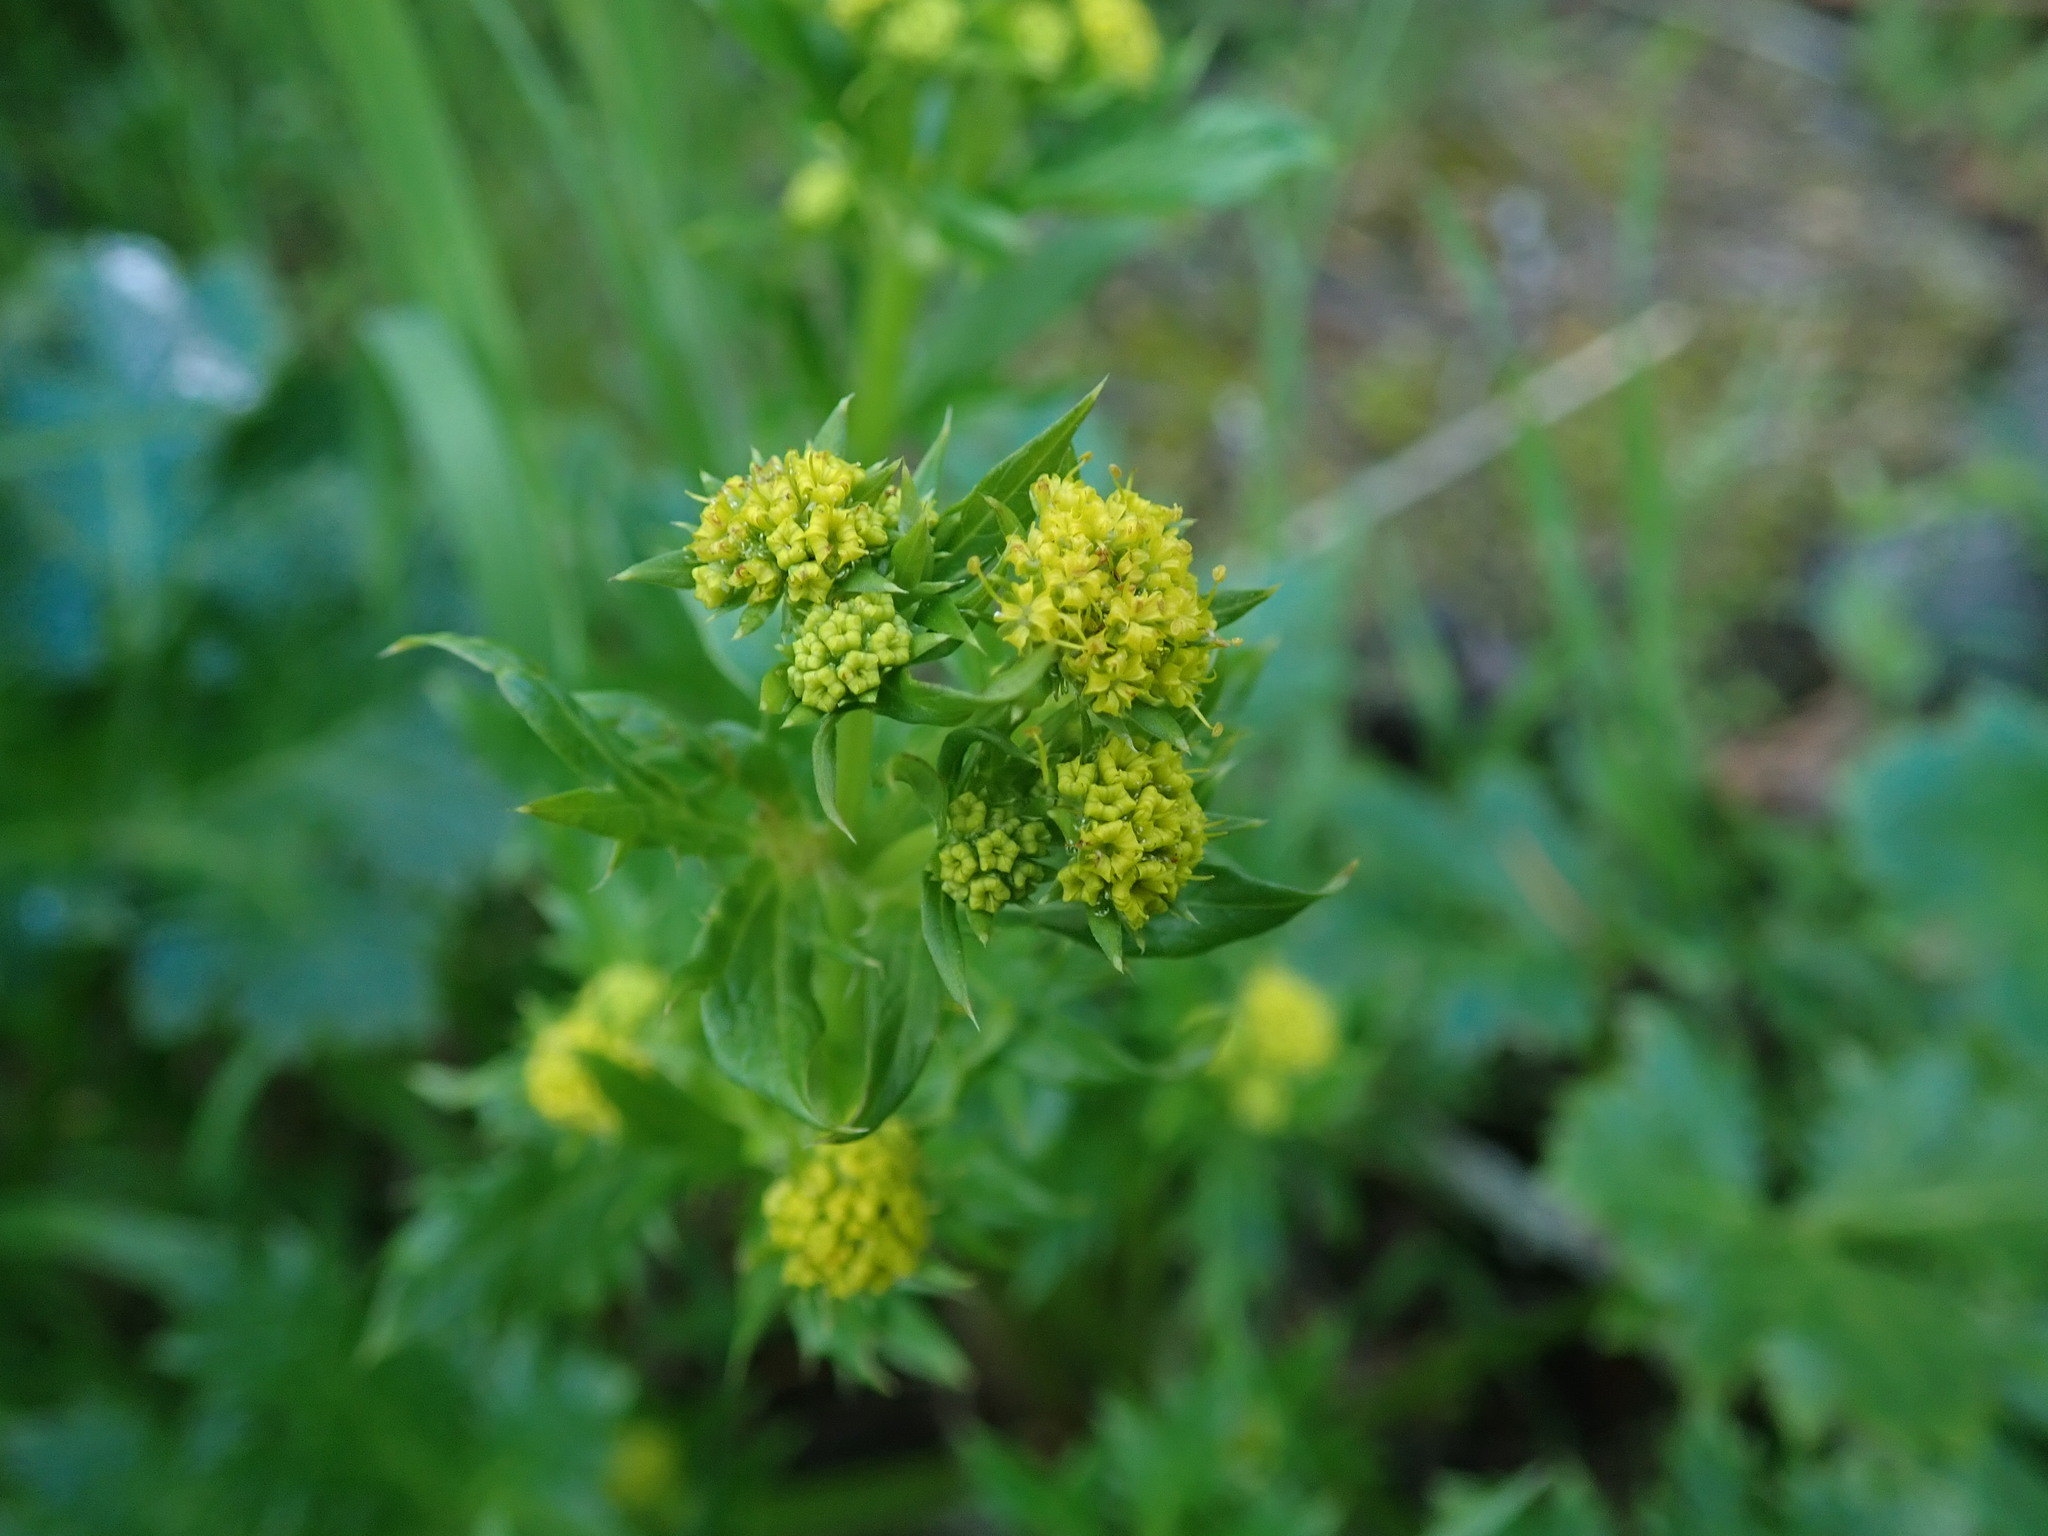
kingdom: Plantae
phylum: Tracheophyta
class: Magnoliopsida
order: Apiales
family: Apiaceae
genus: Sanicula
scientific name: Sanicula crassicaulis
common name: Western snakeroot
